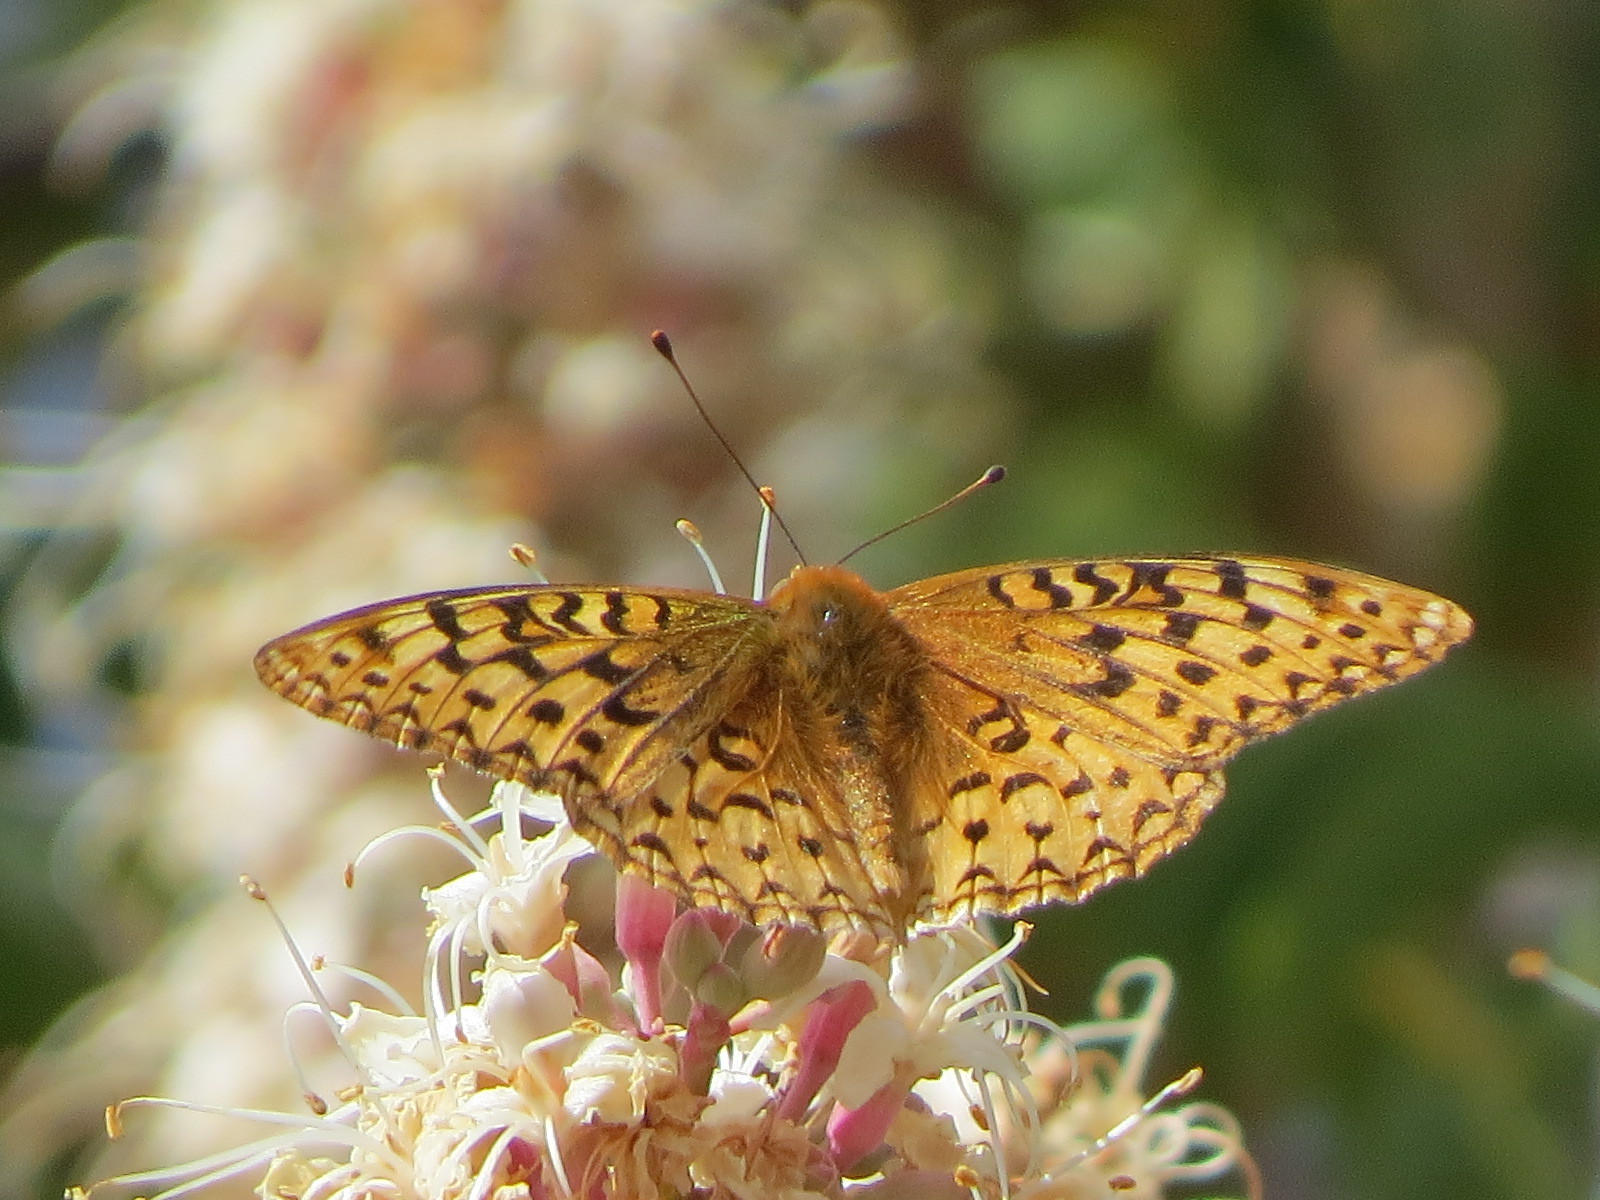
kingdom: Animalia
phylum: Arthropoda
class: Insecta
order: Lepidoptera
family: Nymphalidae
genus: Argynnis
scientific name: Argynnis coronis
